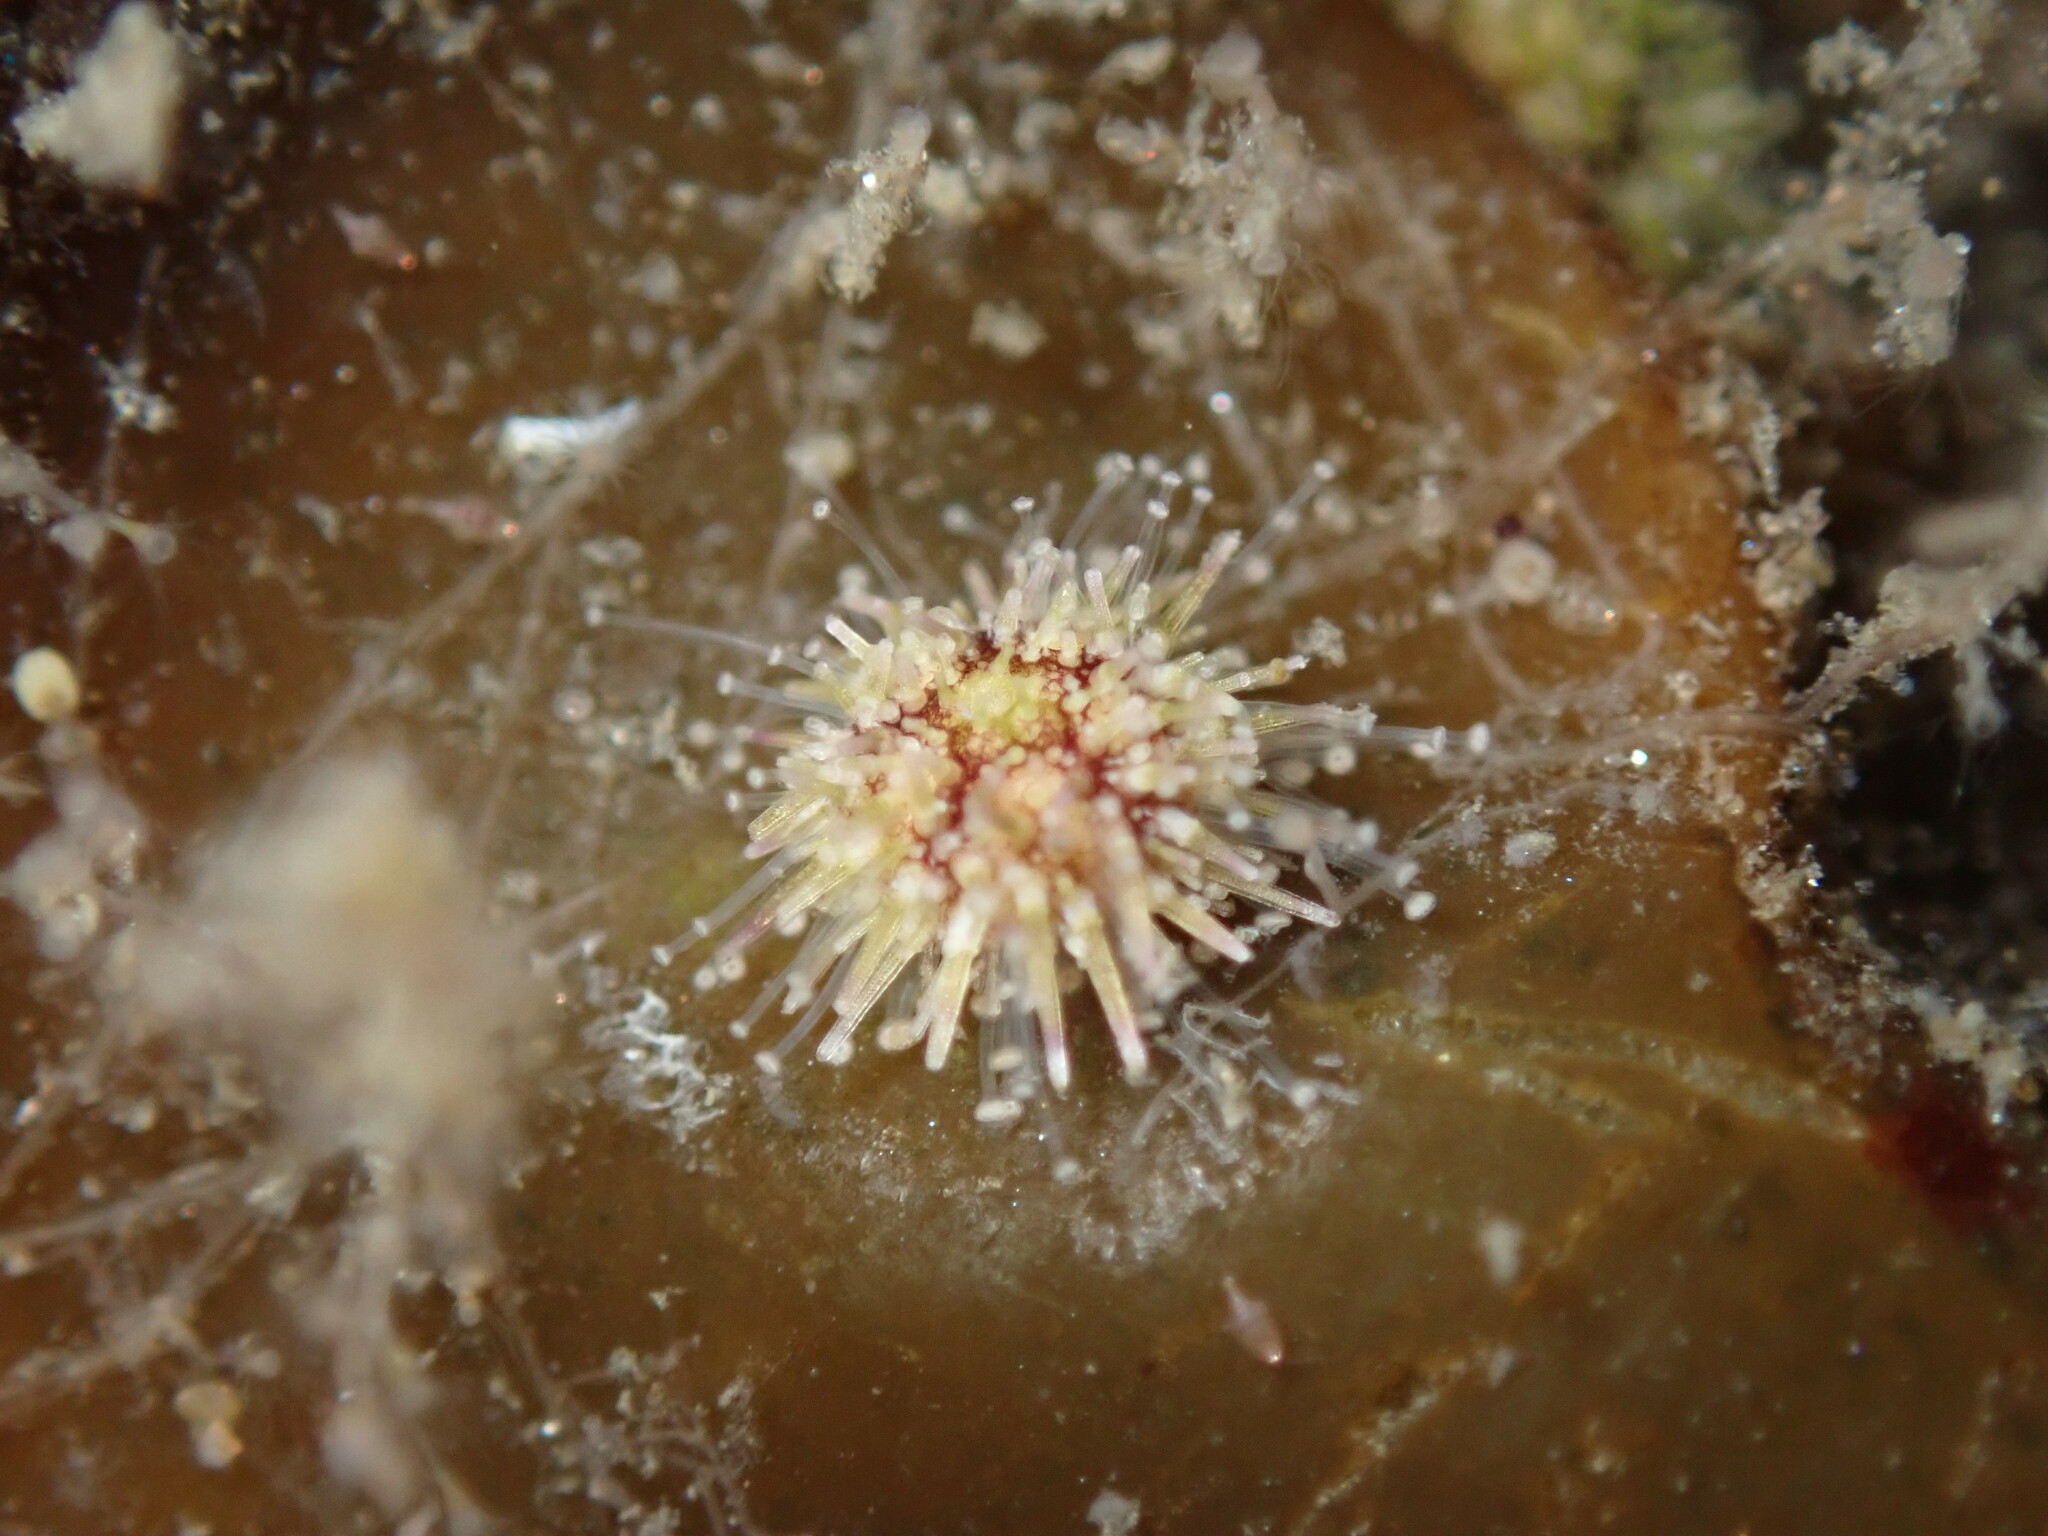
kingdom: Animalia
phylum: Echinodermata
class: Echinoidea
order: Camarodonta
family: Strongylocentrotidae
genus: Strongylocentrotus
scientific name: Strongylocentrotus purpuratus
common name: Purple sea urchin
